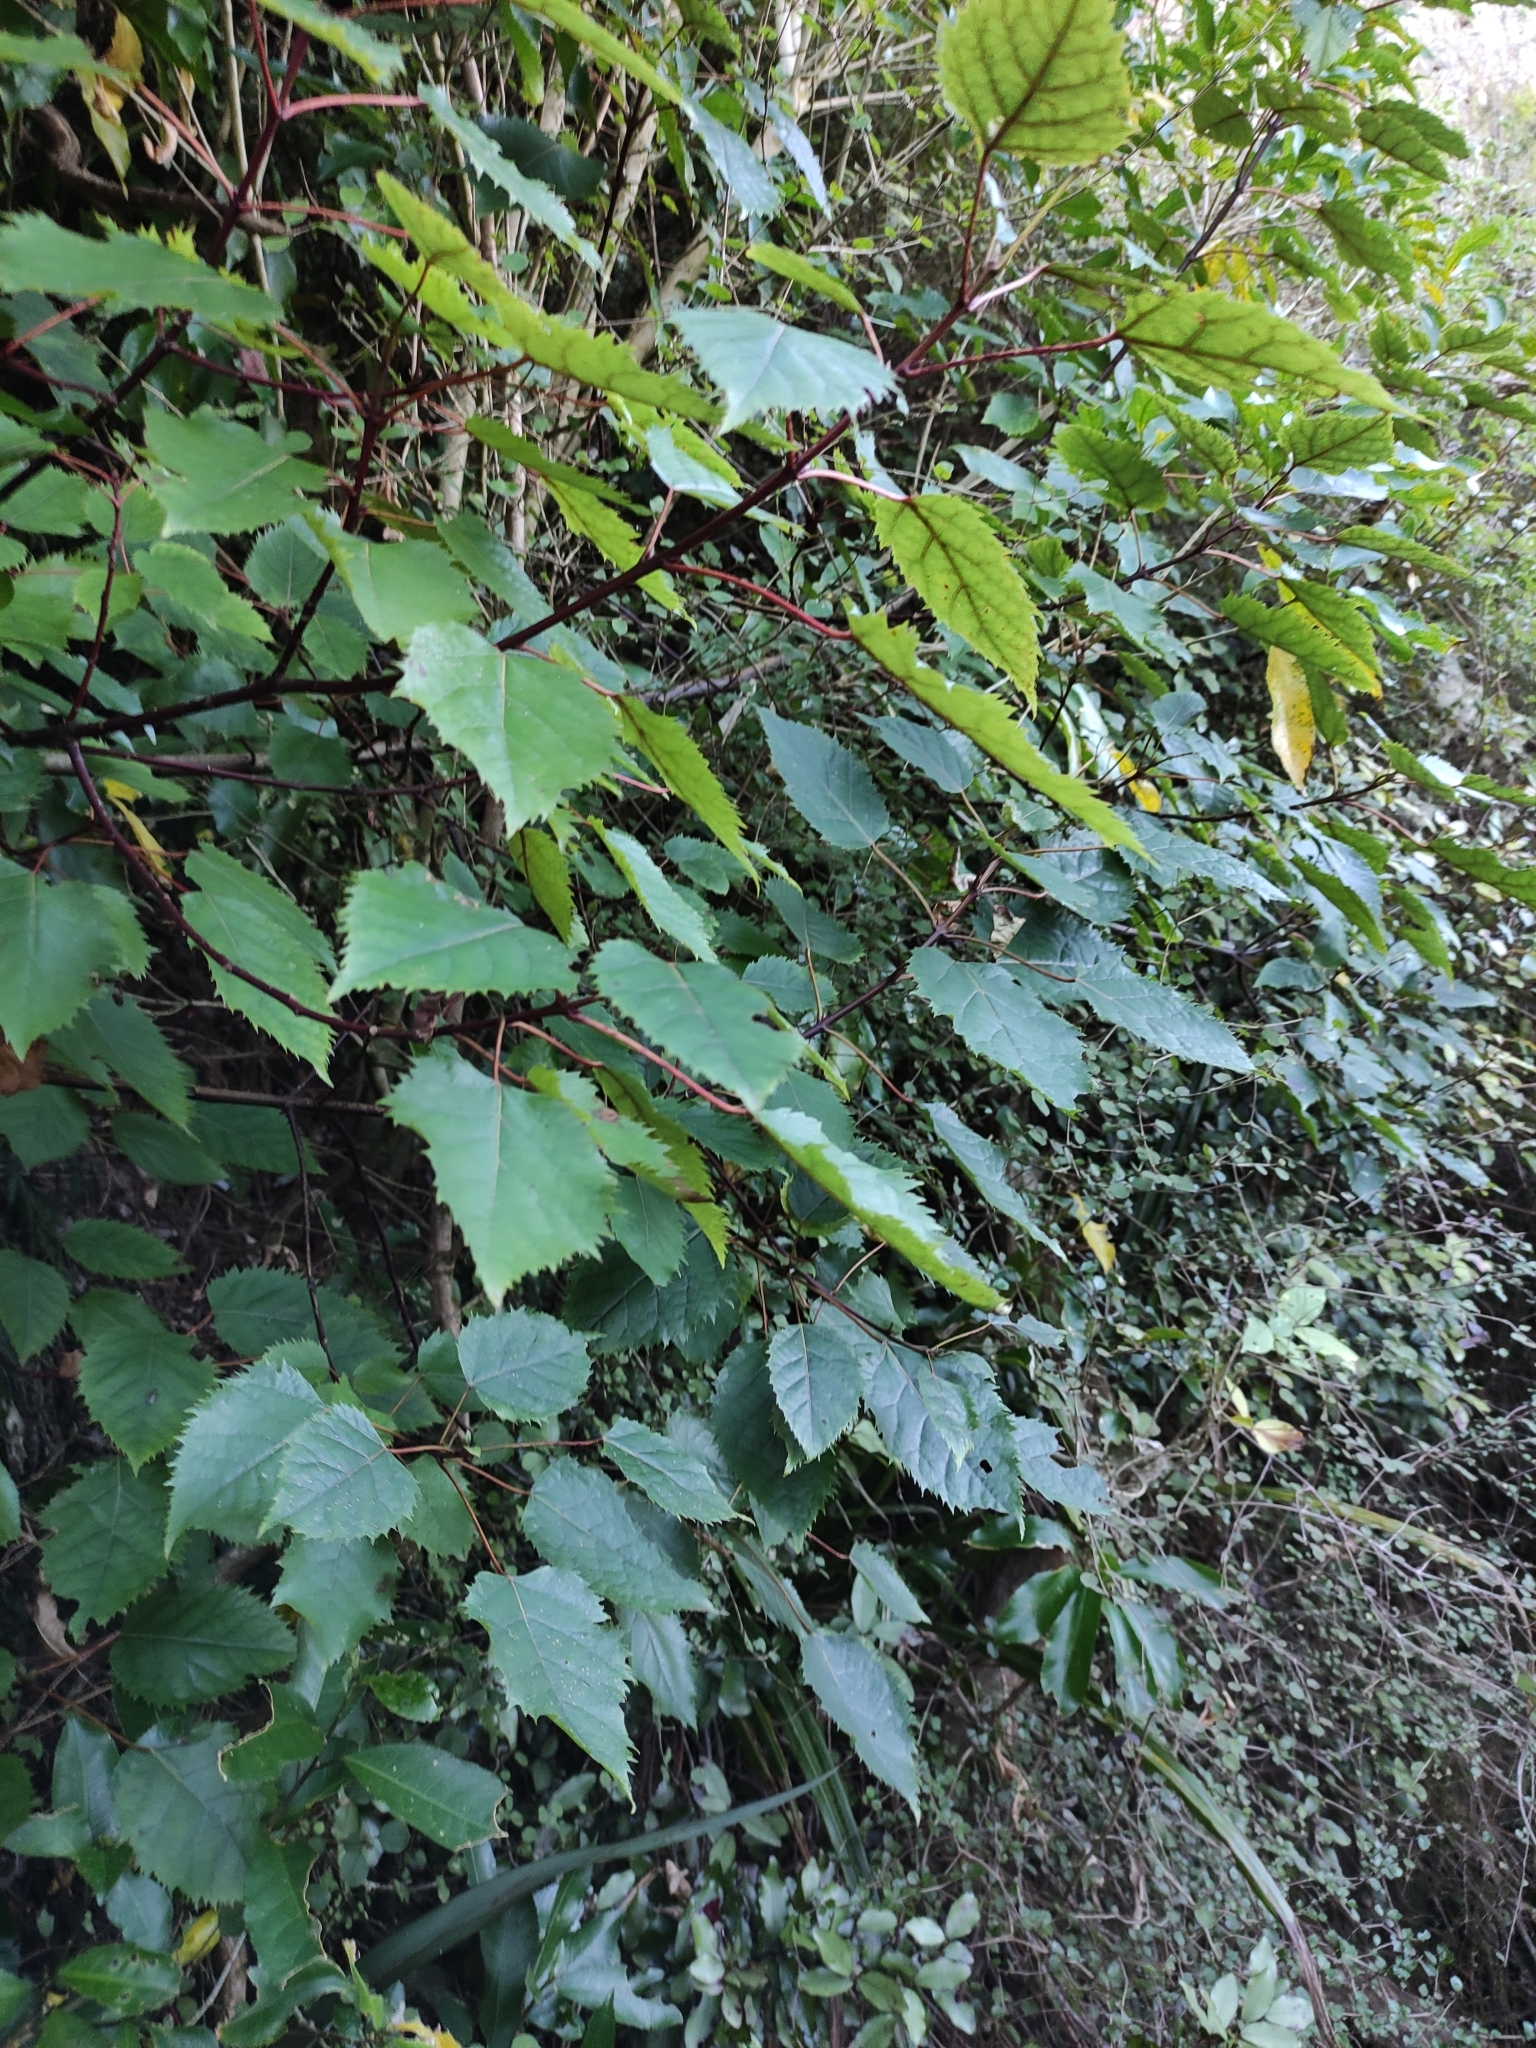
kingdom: Plantae
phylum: Tracheophyta
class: Magnoliopsida
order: Oxalidales
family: Elaeocarpaceae
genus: Aristotelia
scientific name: Aristotelia serrata
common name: New zealand wineberry
